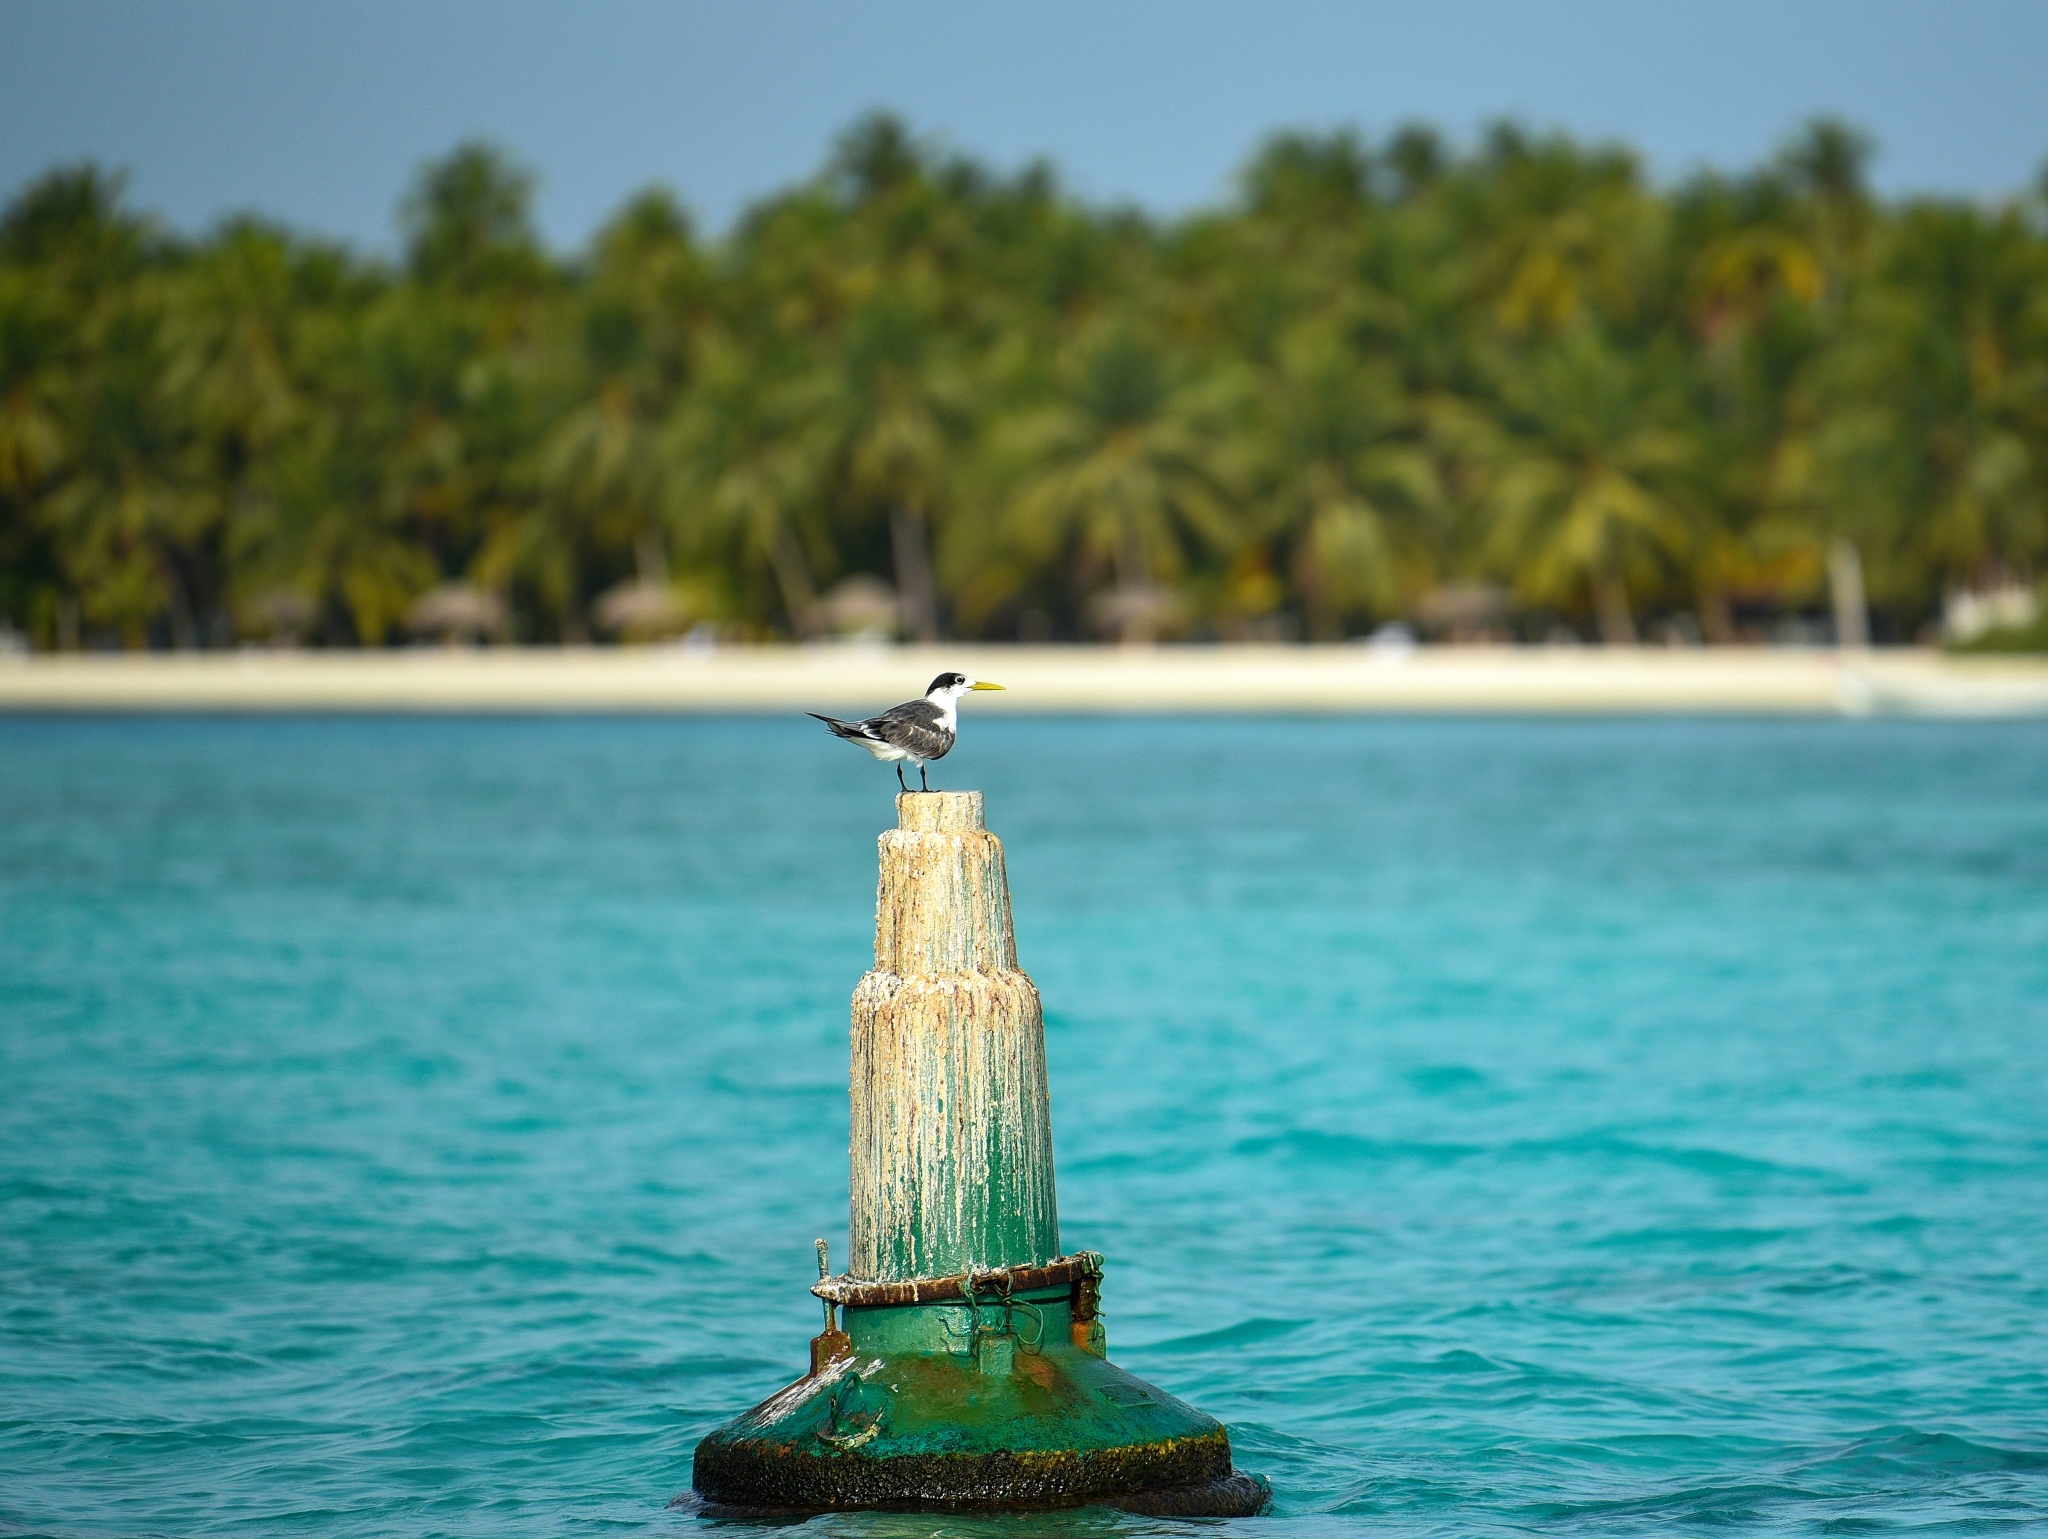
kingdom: Animalia
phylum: Chordata
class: Aves
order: Charadriiformes
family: Laridae
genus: Thalasseus
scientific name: Thalasseus bergii
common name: Greater crested tern
